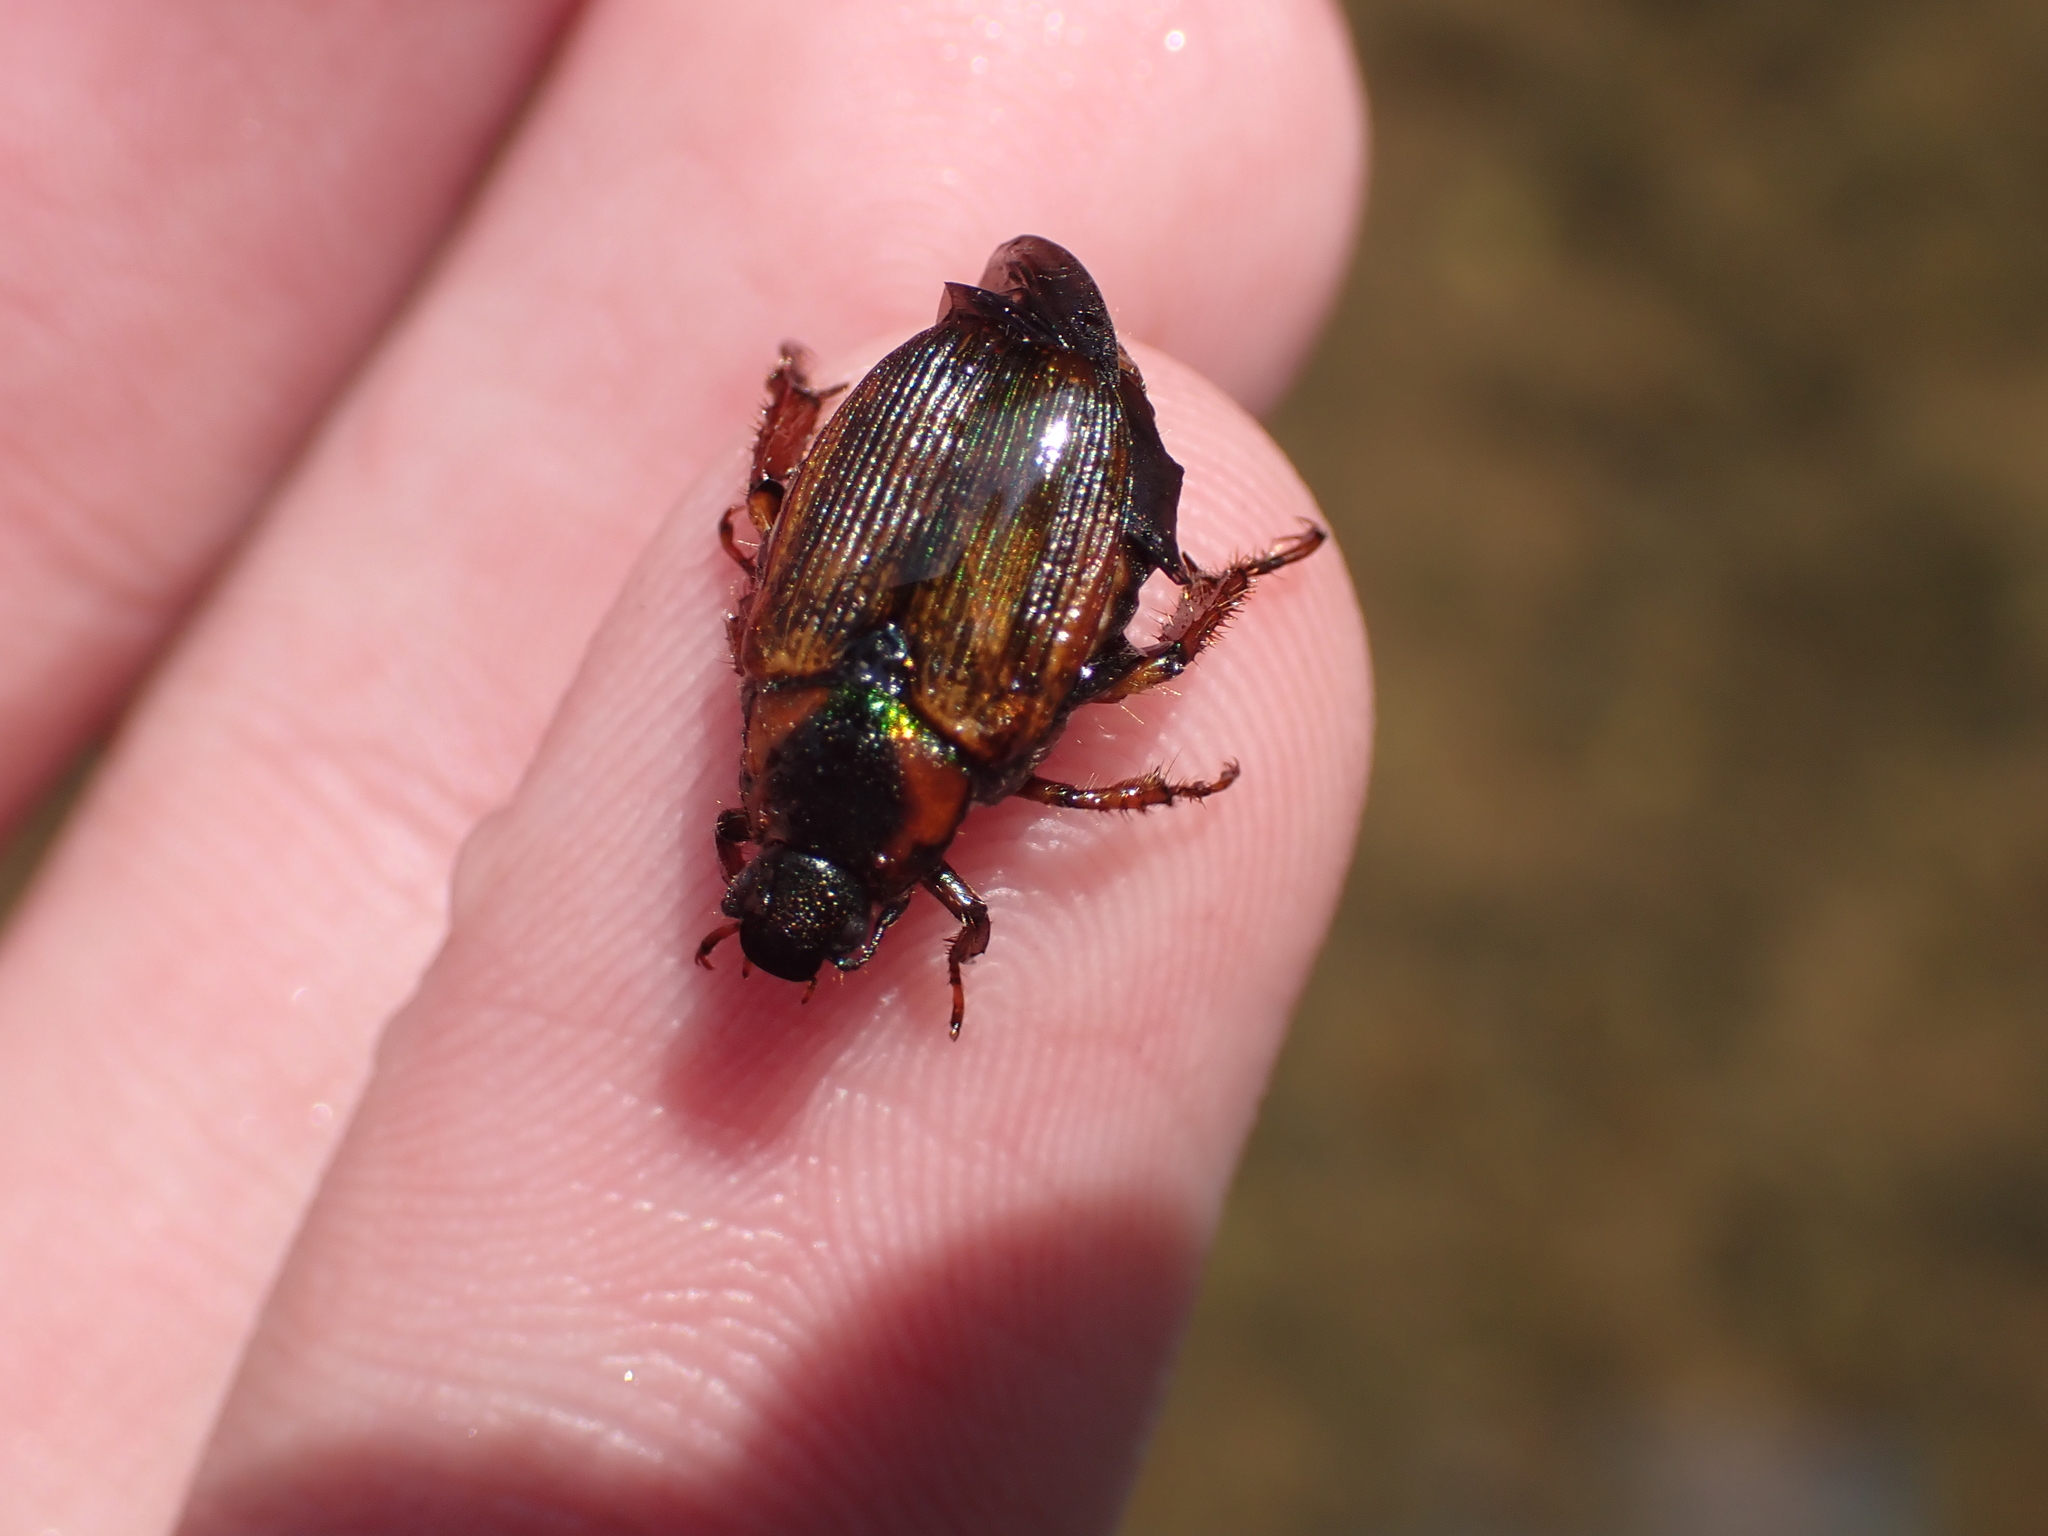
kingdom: Animalia
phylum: Arthropoda
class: Insecta
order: Coleoptera
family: Scarabaeidae
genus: Strigoderma
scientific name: Strigoderma arbicola
